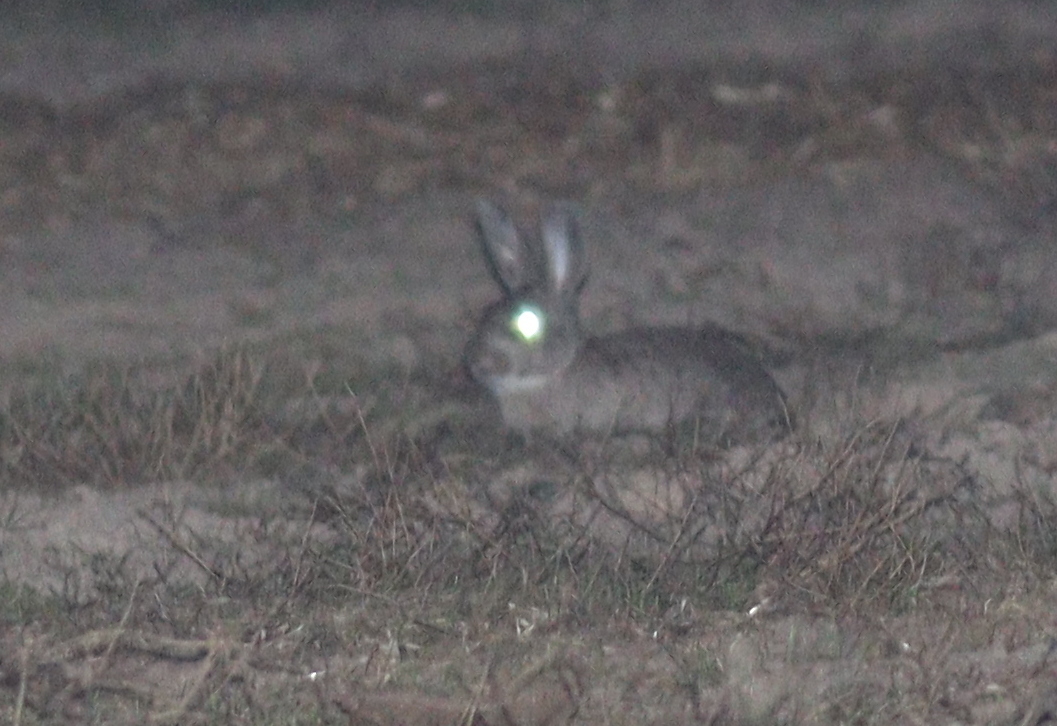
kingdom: Animalia
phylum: Chordata
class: Mammalia
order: Lagomorpha
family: Leporidae
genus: Oryctolagus
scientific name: Oryctolagus cuniculus
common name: European rabbit
